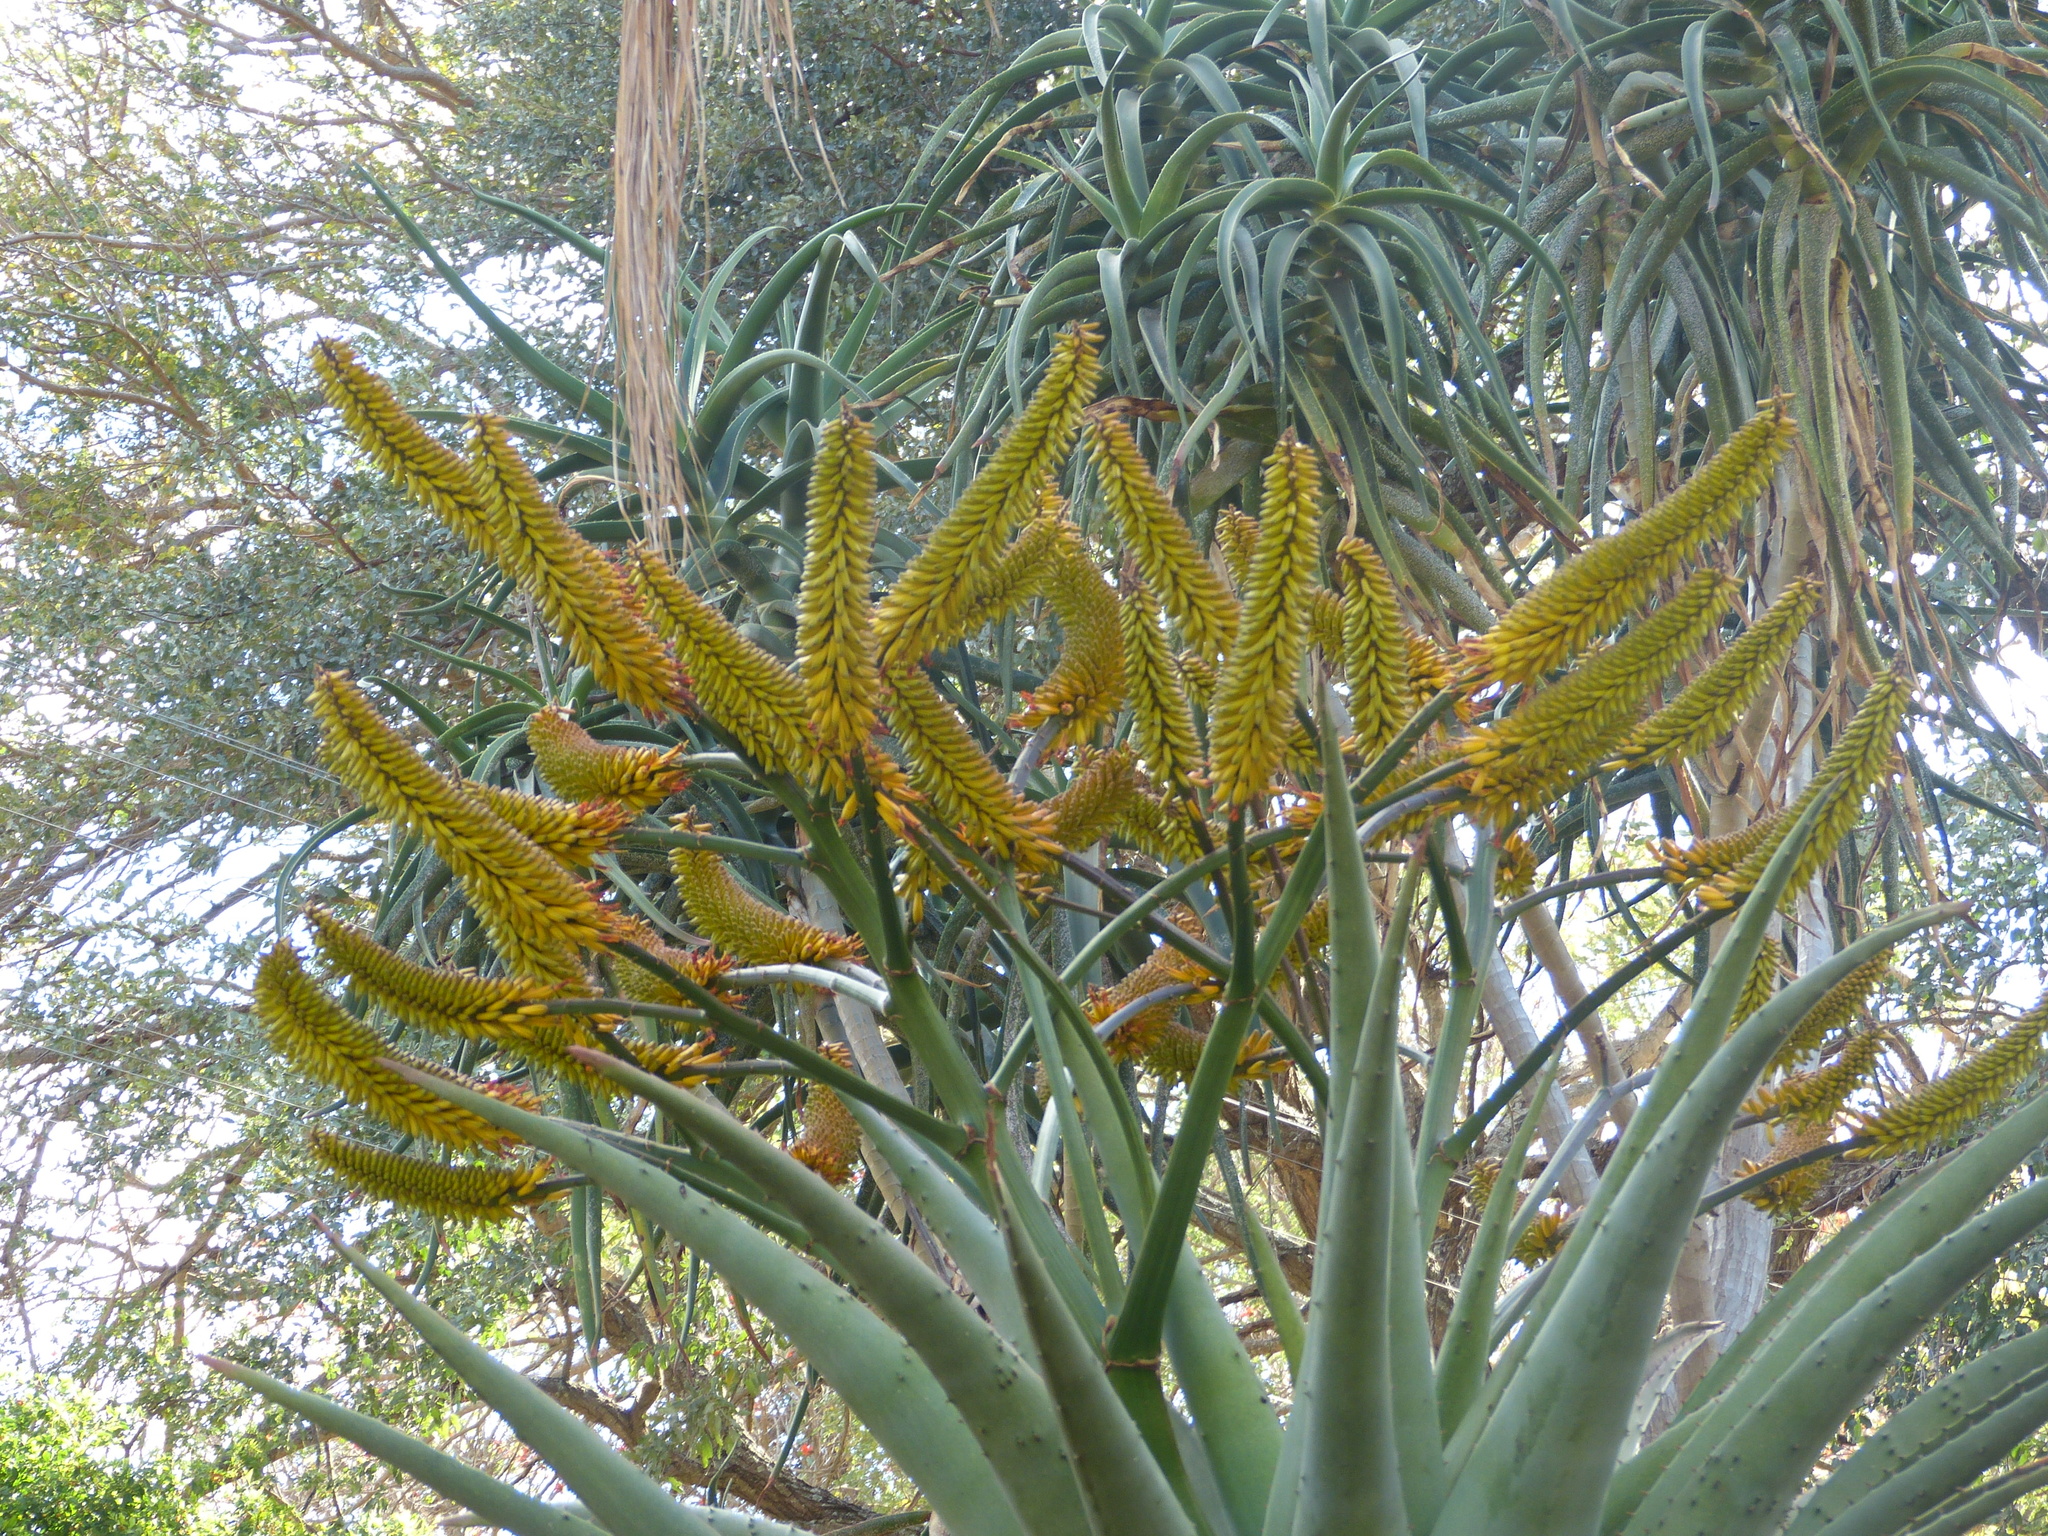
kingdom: Plantae
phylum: Tracheophyta
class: Liliopsida
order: Asparagales
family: Asphodelaceae
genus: Aloe
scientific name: Aloe marlothii
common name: Flat-flowered aloe
